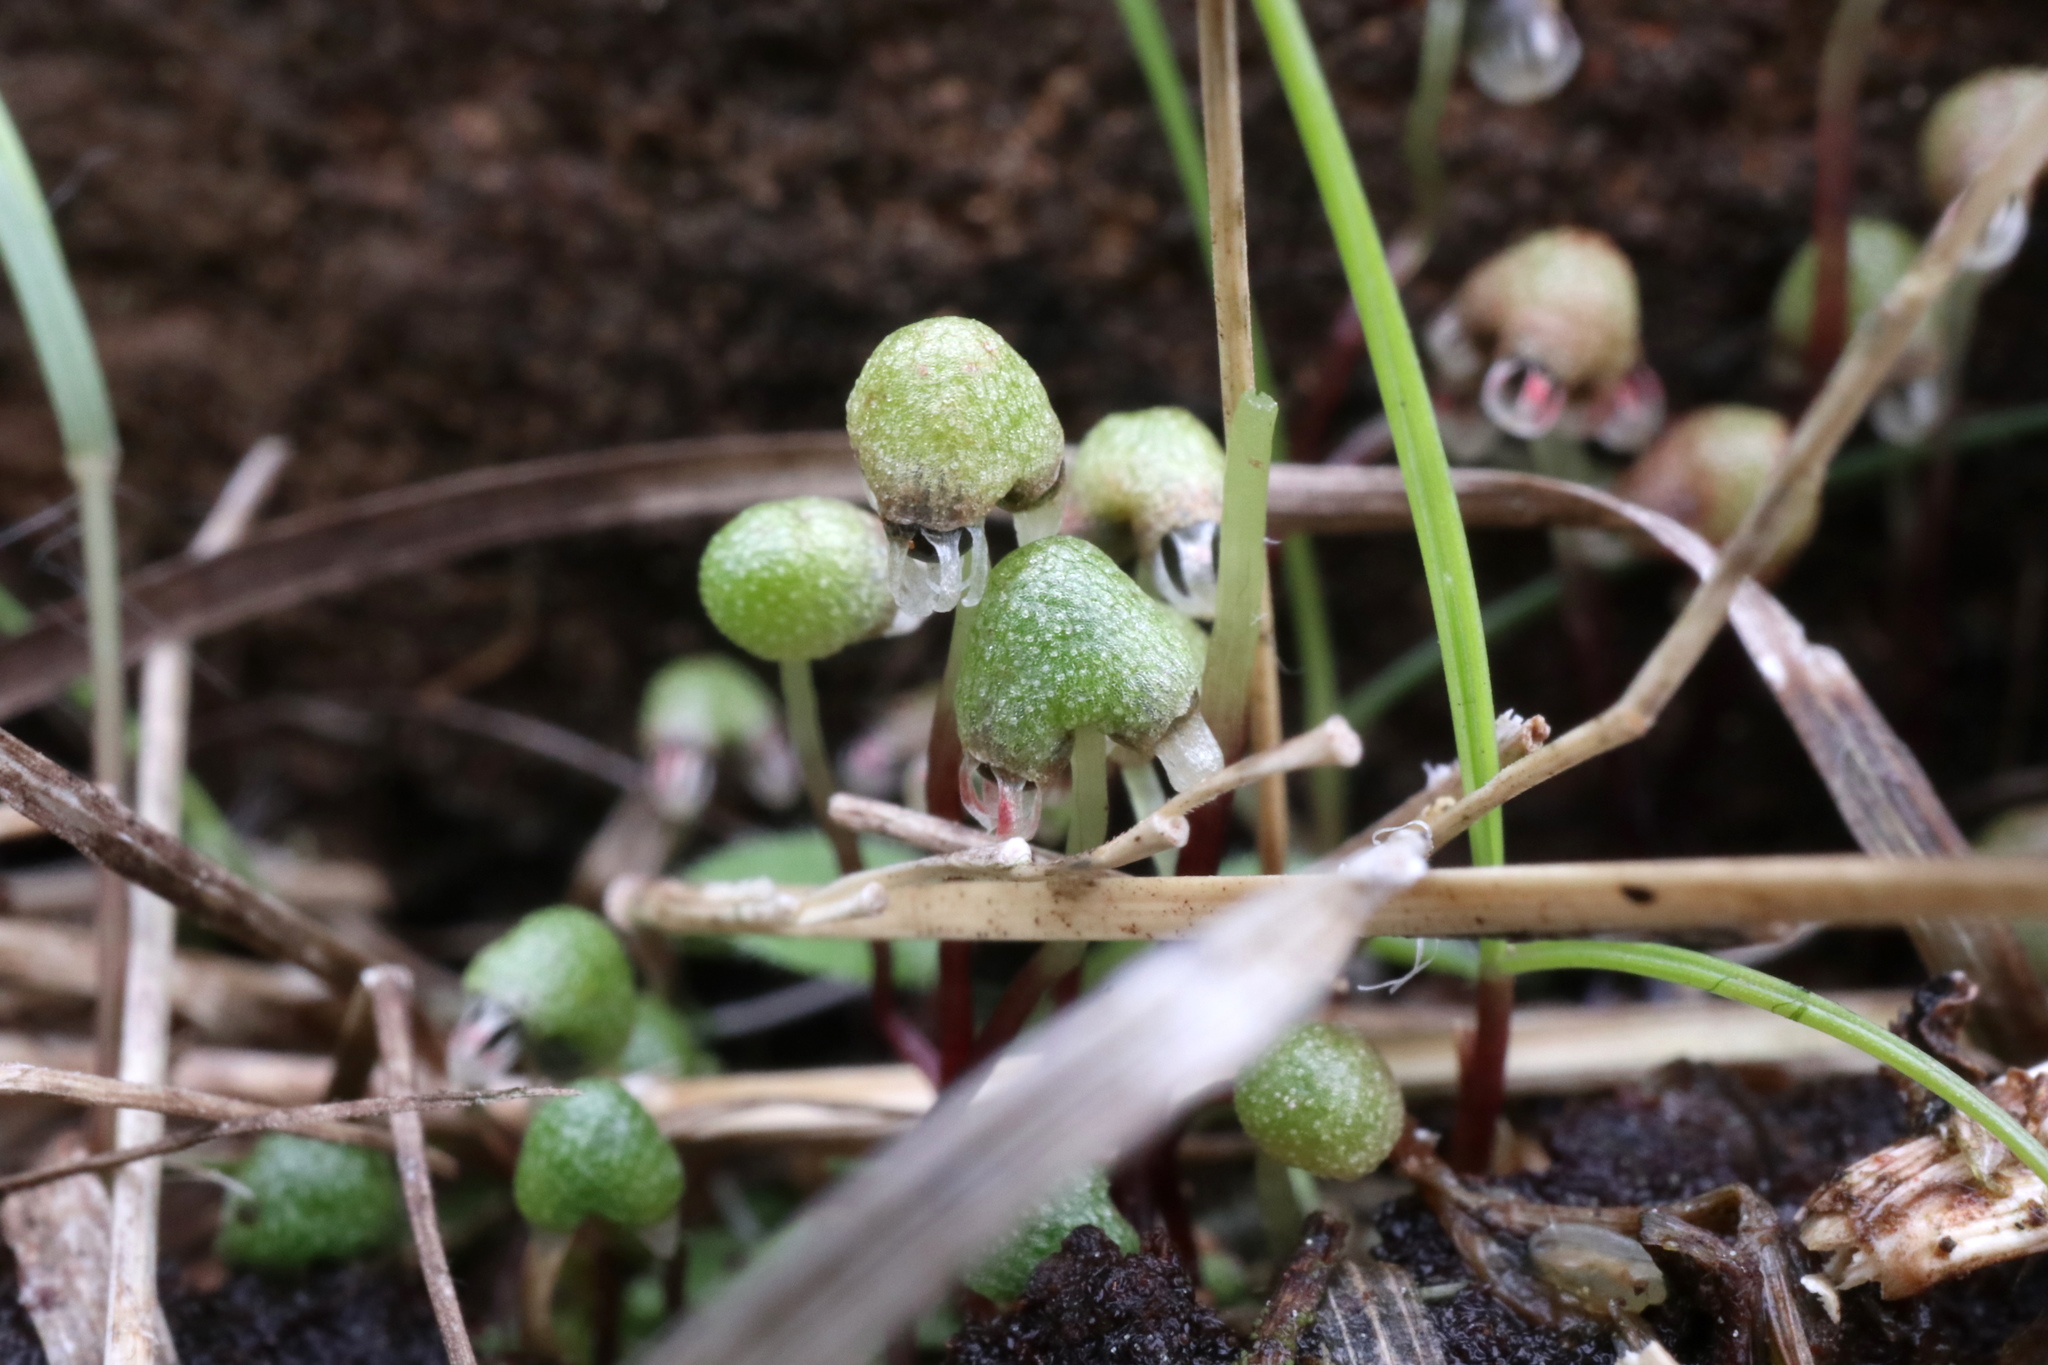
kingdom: Plantae
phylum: Marchantiophyta
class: Marchantiopsida
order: Marchantiales
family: Aytoniaceae
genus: Asterella
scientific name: Asterella tenella
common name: Delicate starwort
